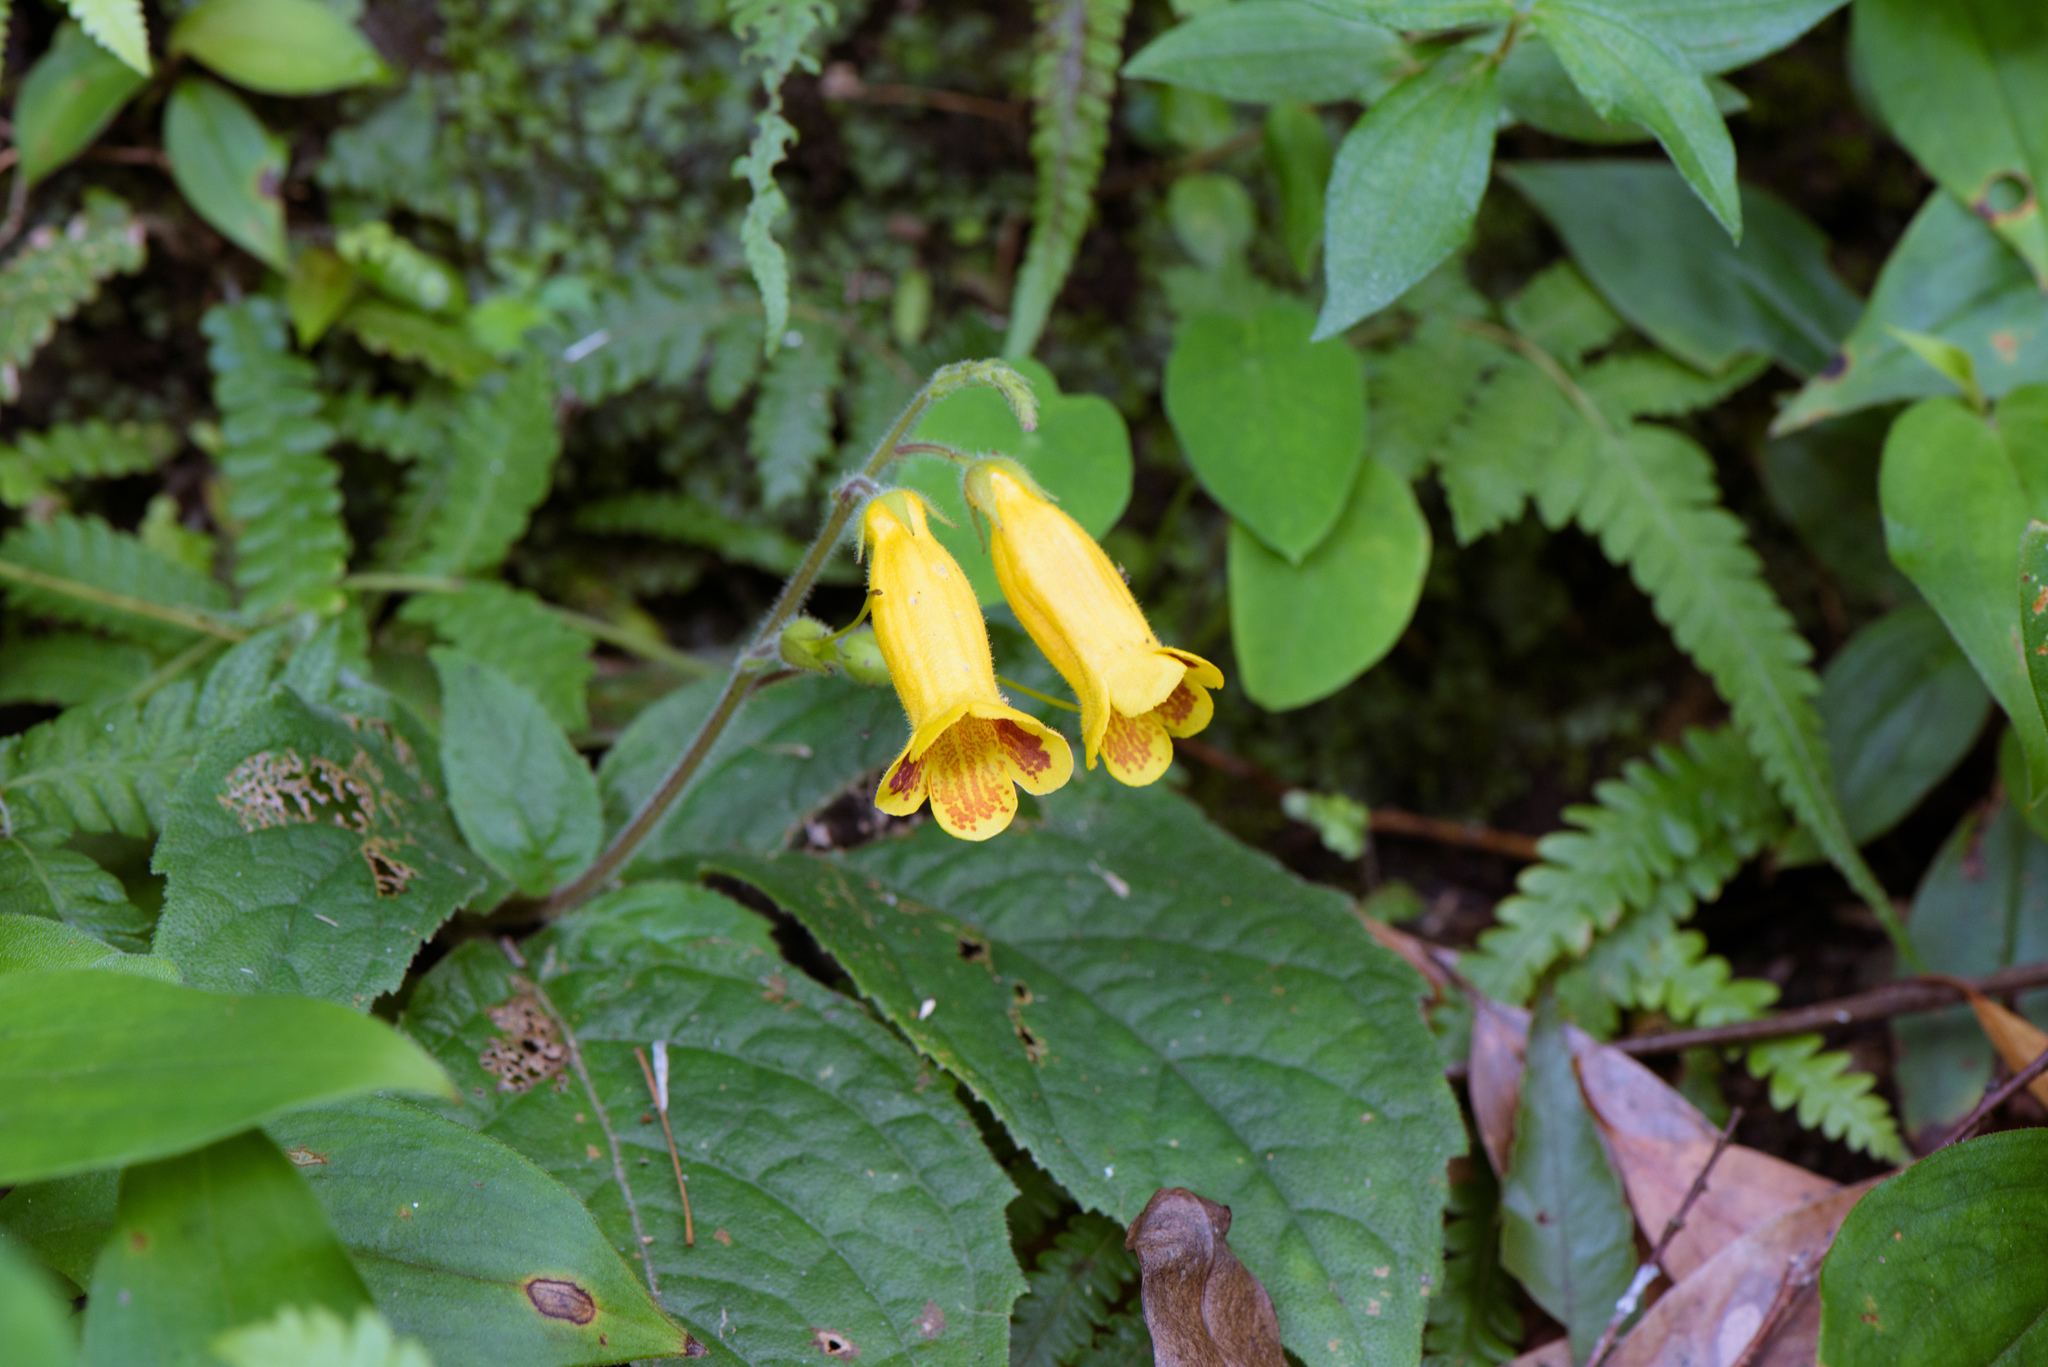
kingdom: Plantae
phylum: Tracheophyta
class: Magnoliopsida
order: Lamiales
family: Gesneriaceae
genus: Titanotrichum
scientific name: Titanotrichum oldhamii
